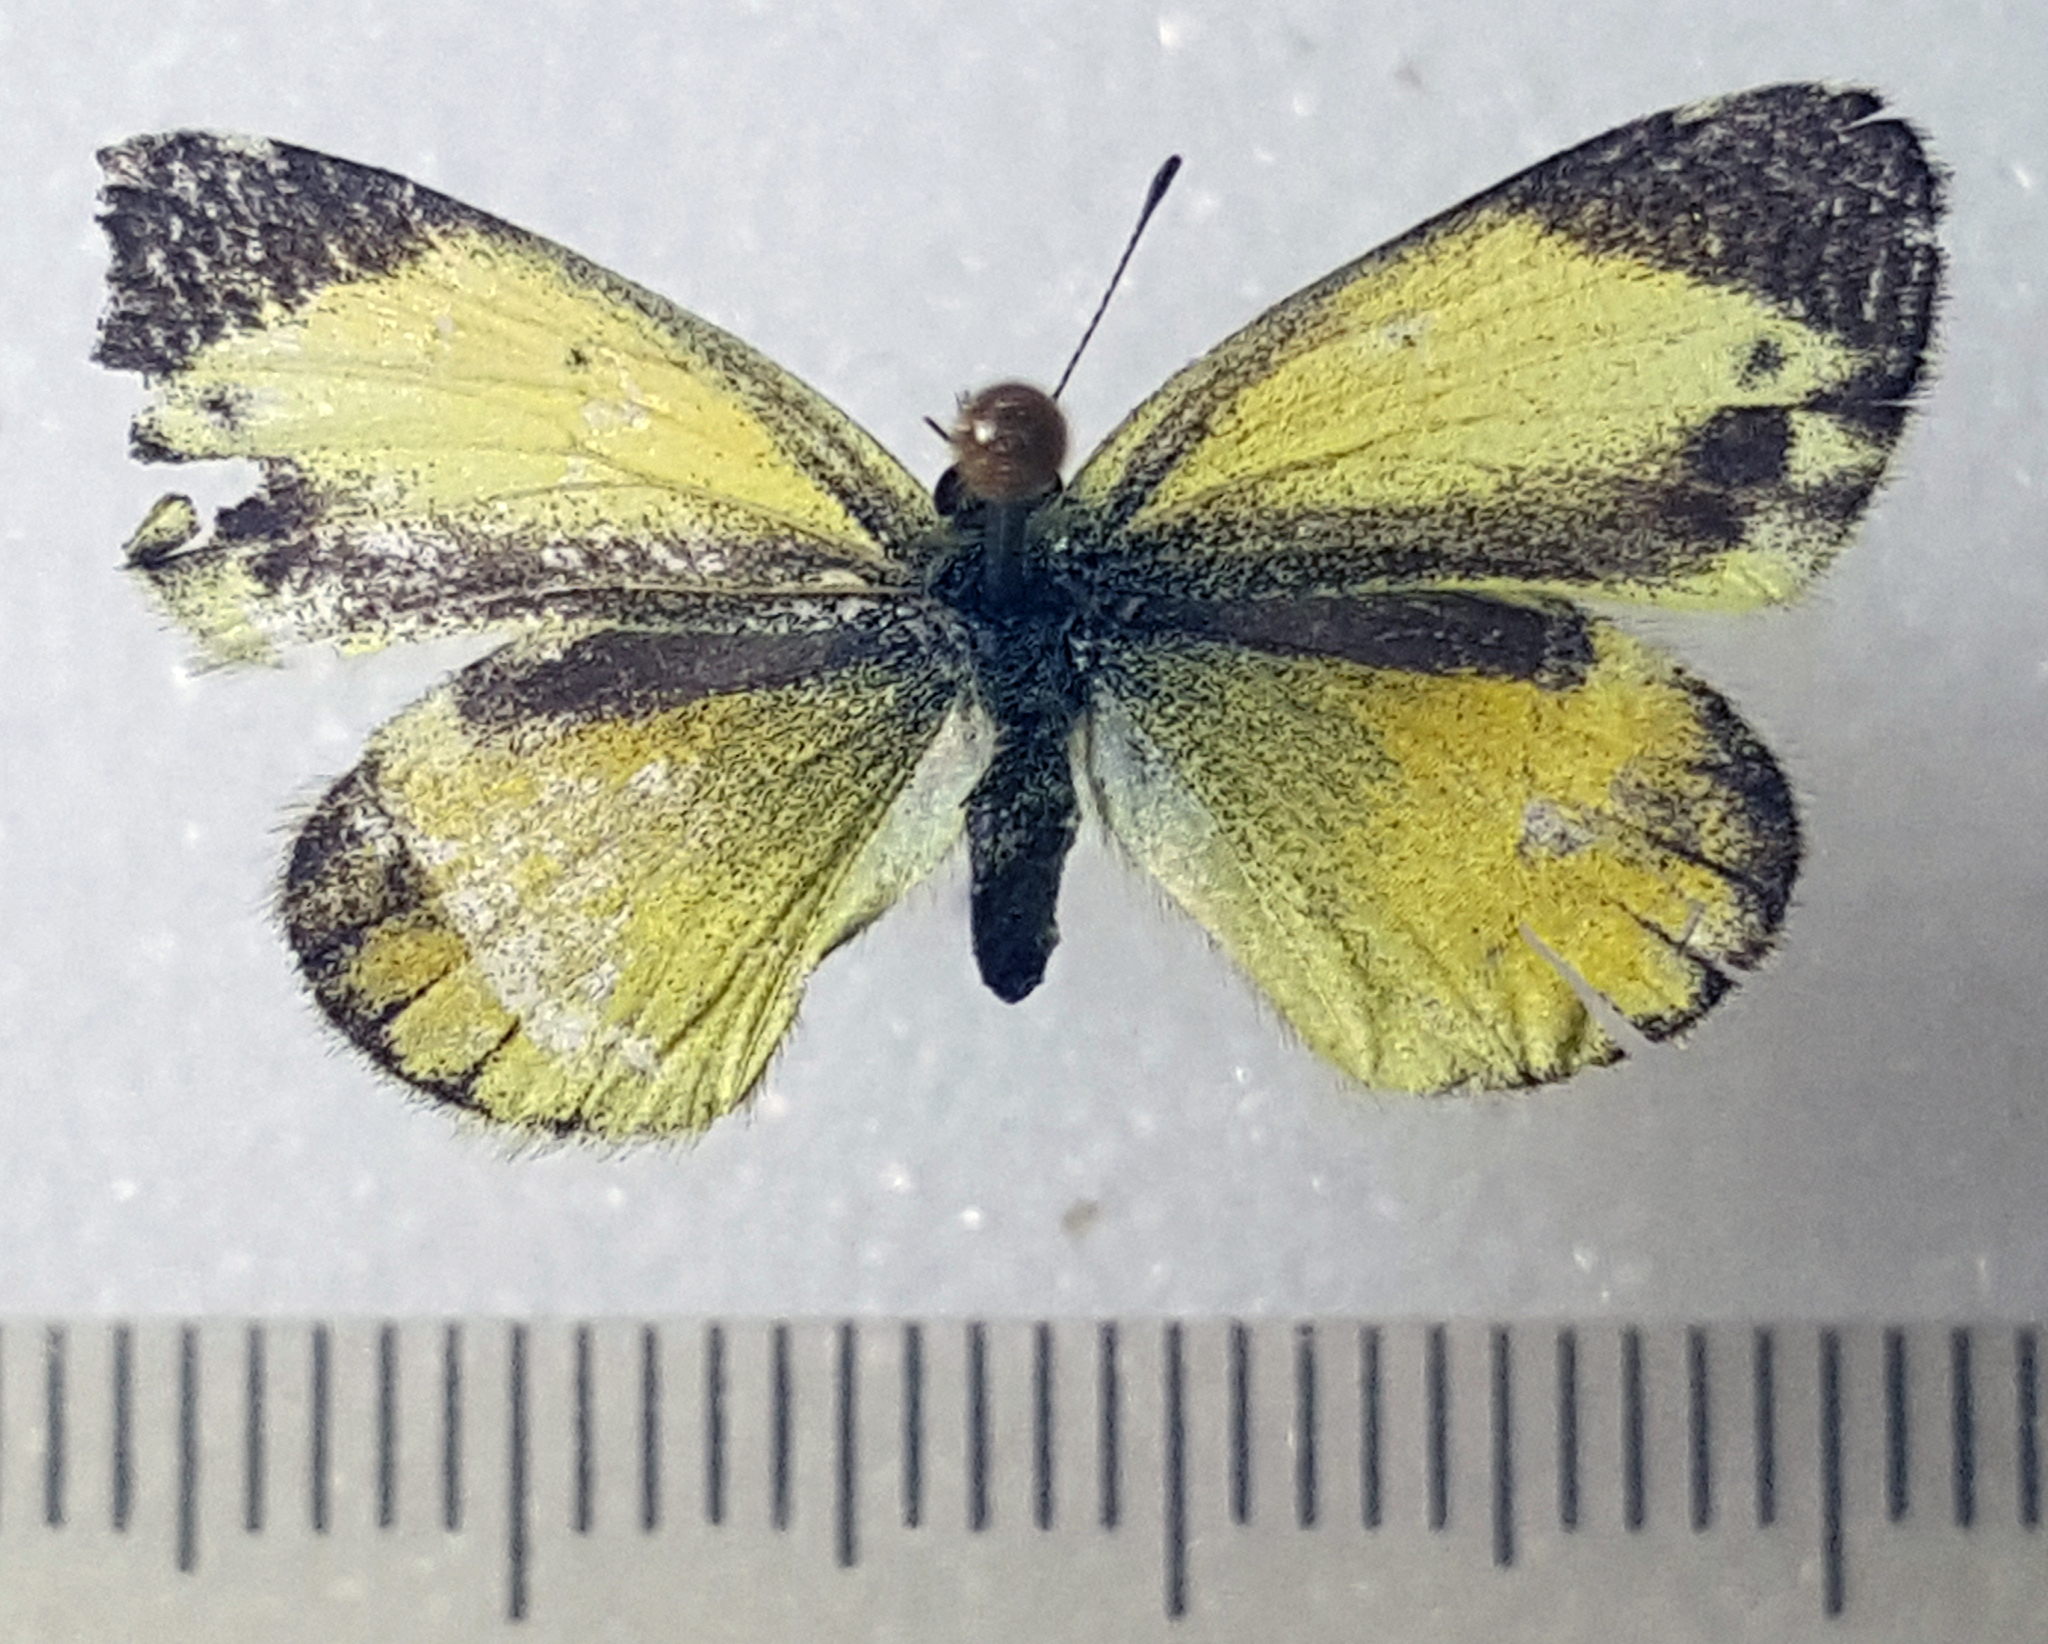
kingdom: Animalia
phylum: Arthropoda
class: Insecta
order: Lepidoptera
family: Pieridae
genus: Nathalis
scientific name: Nathalis iole
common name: Dainty sulphur
